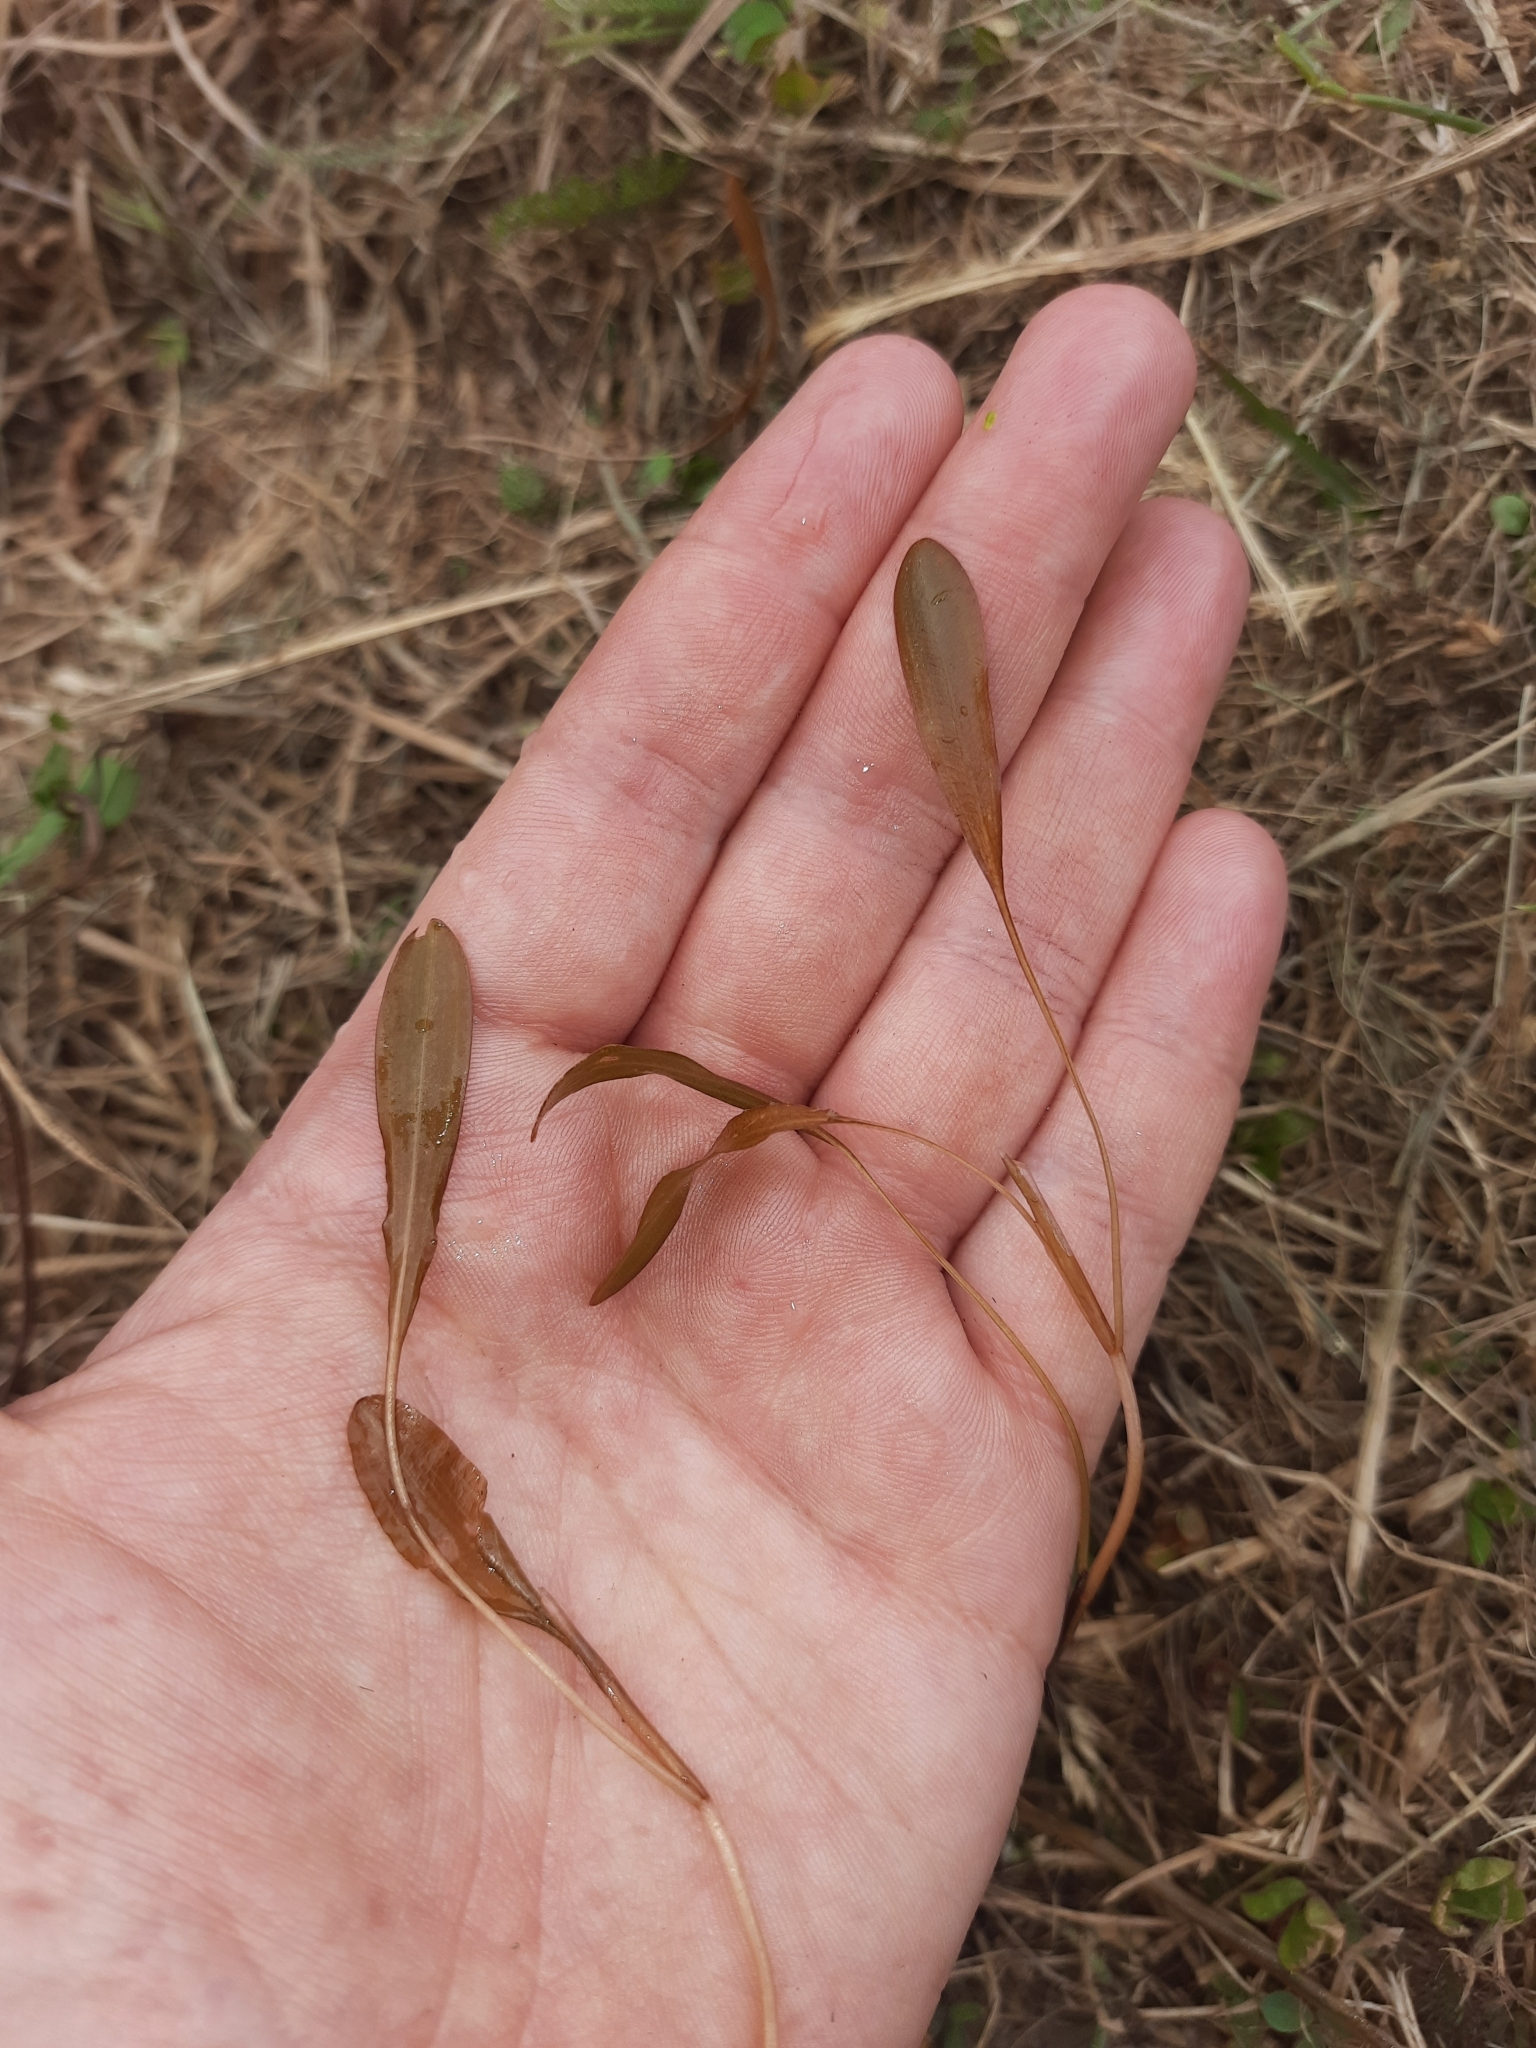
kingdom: Plantae
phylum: Tracheophyta
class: Liliopsida
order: Alismatales
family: Potamogetonaceae
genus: Potamogeton
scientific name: Potamogeton cheesemanii
